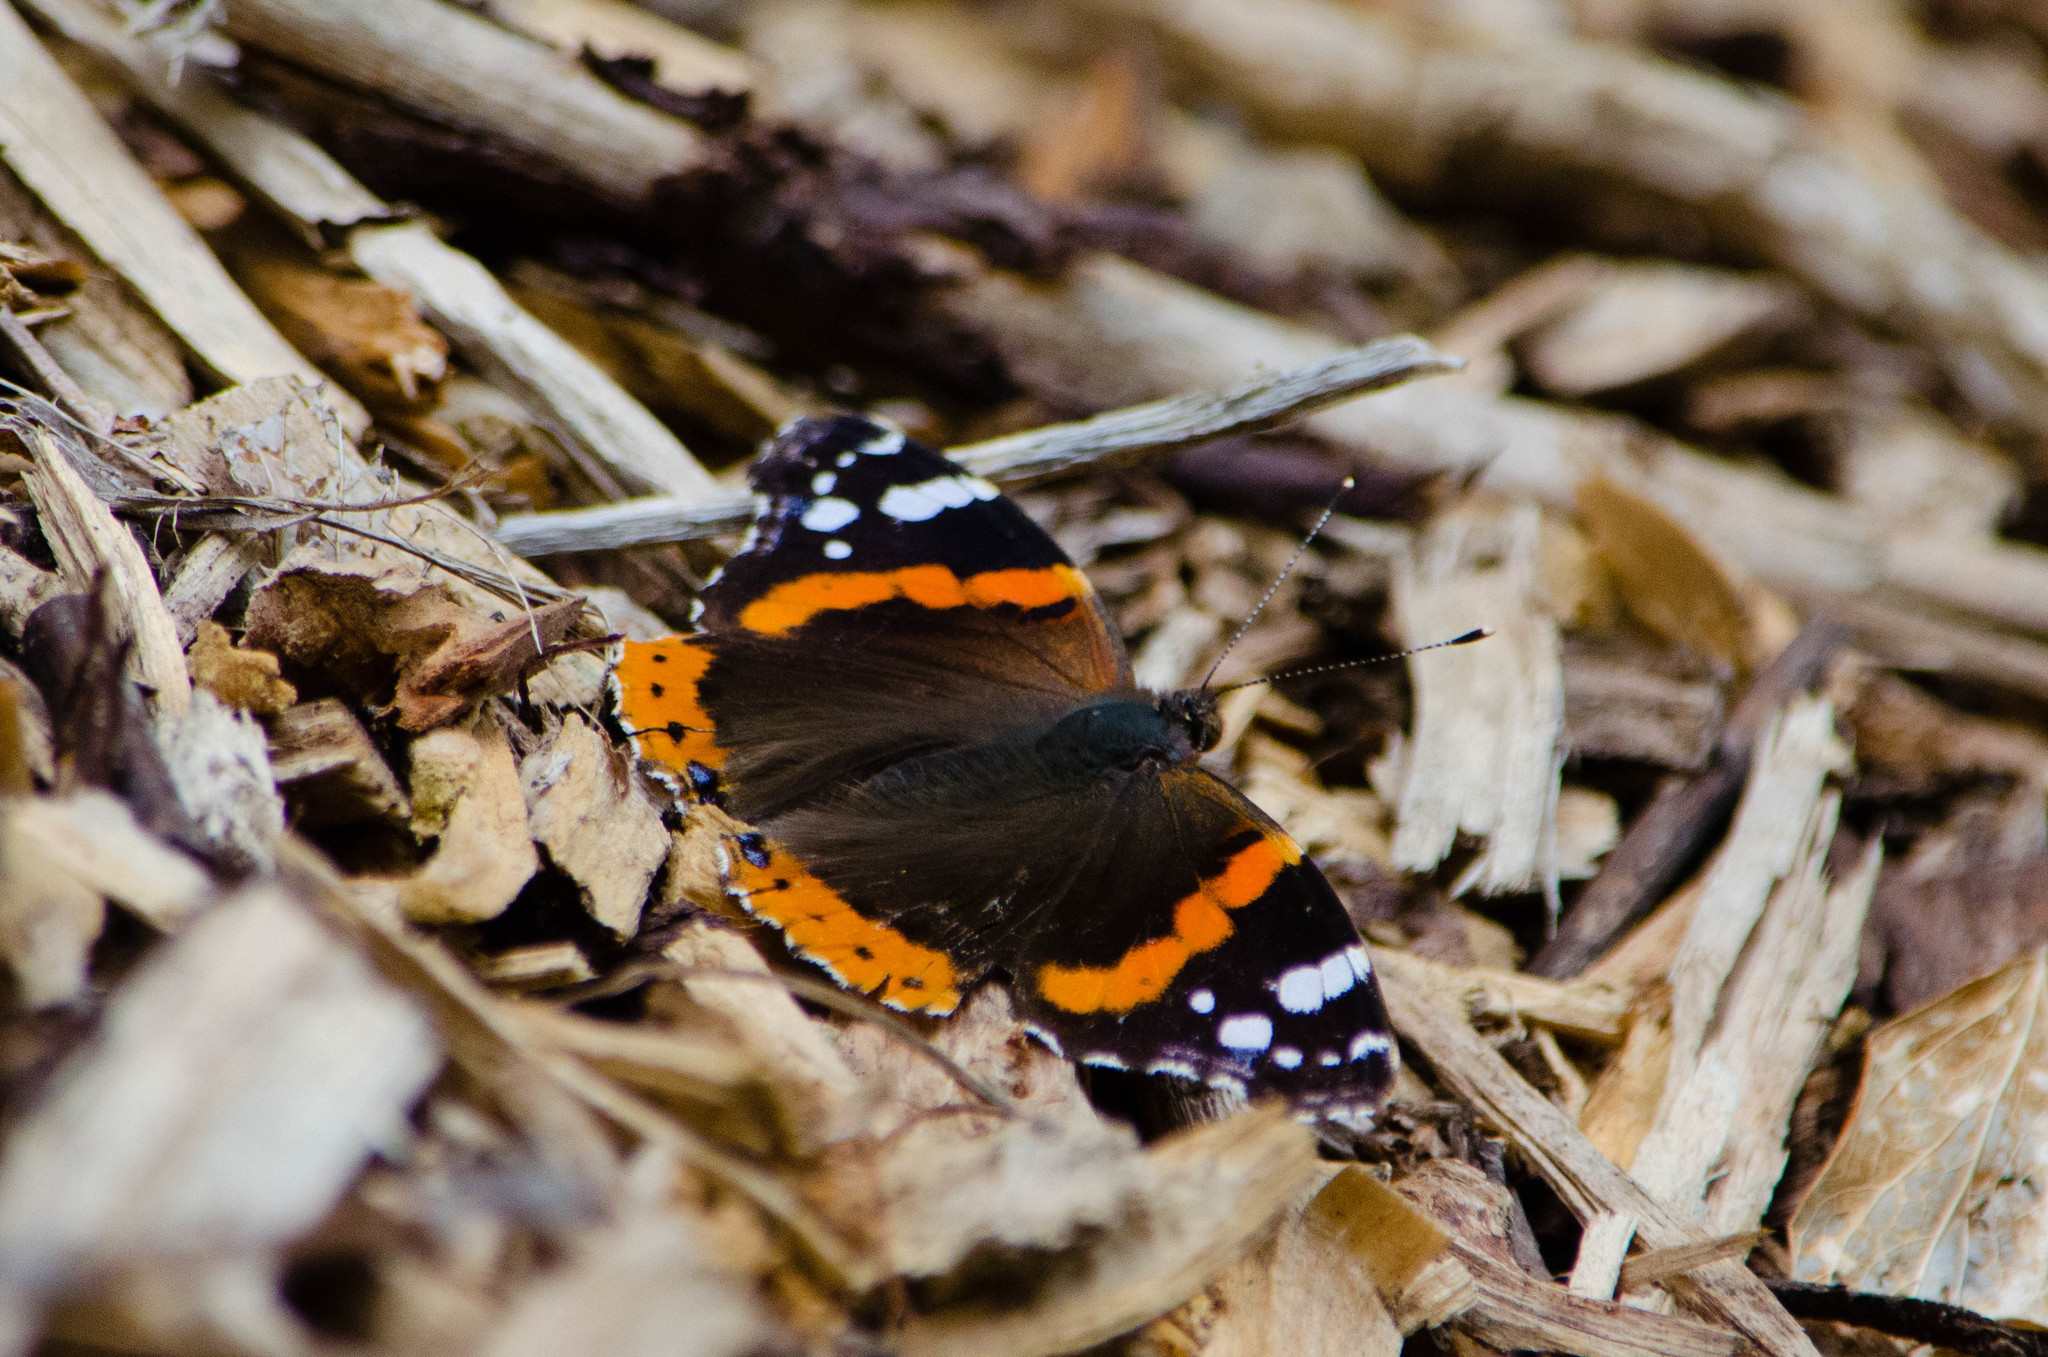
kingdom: Animalia
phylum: Arthropoda
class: Insecta
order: Lepidoptera
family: Nymphalidae
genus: Vanessa
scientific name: Vanessa atalanta
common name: Red admiral
